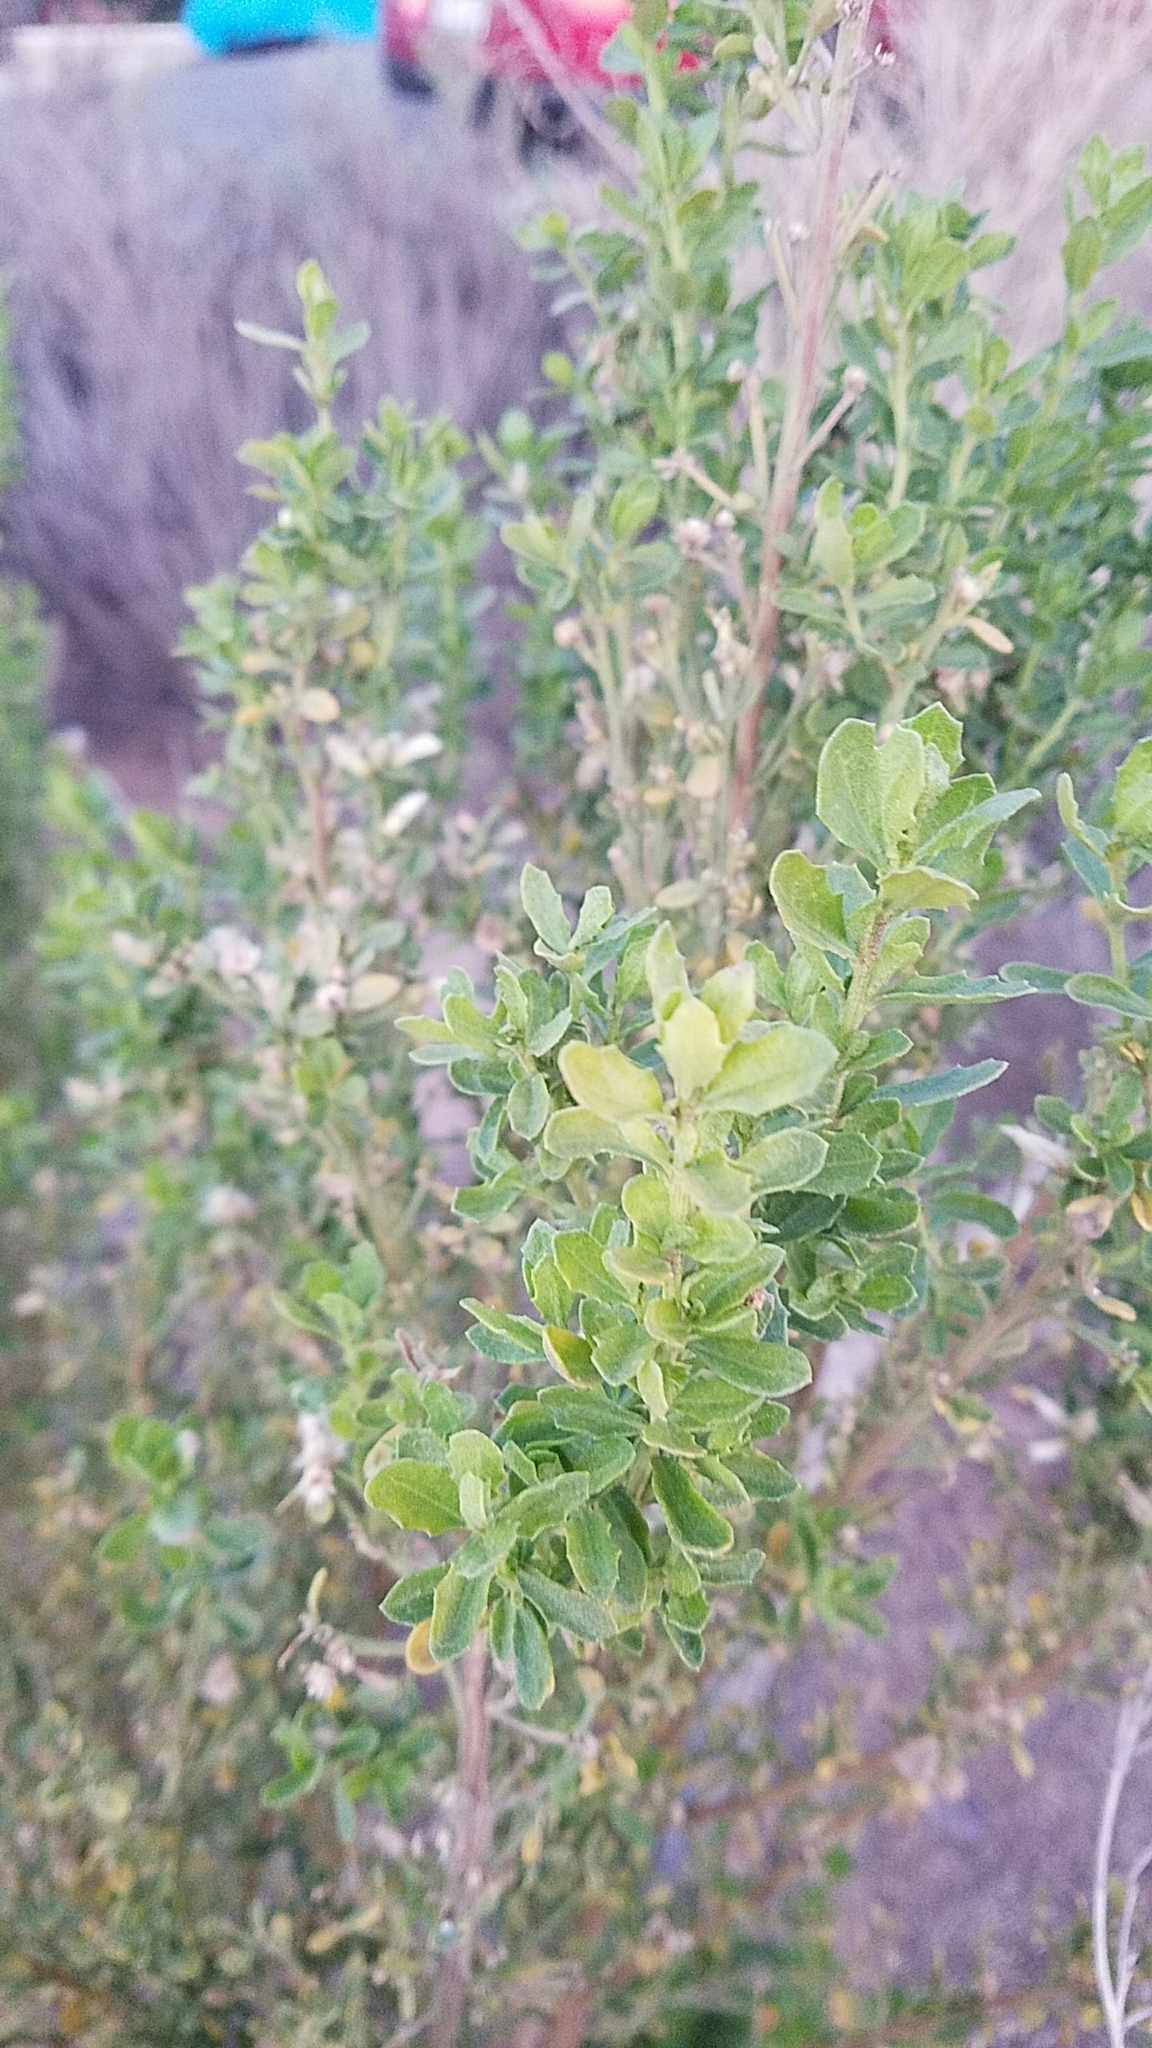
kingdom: Plantae
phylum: Tracheophyta
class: Magnoliopsida
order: Asterales
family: Asteraceae
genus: Baccharis
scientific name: Baccharis pilularis
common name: Coyotebrush
